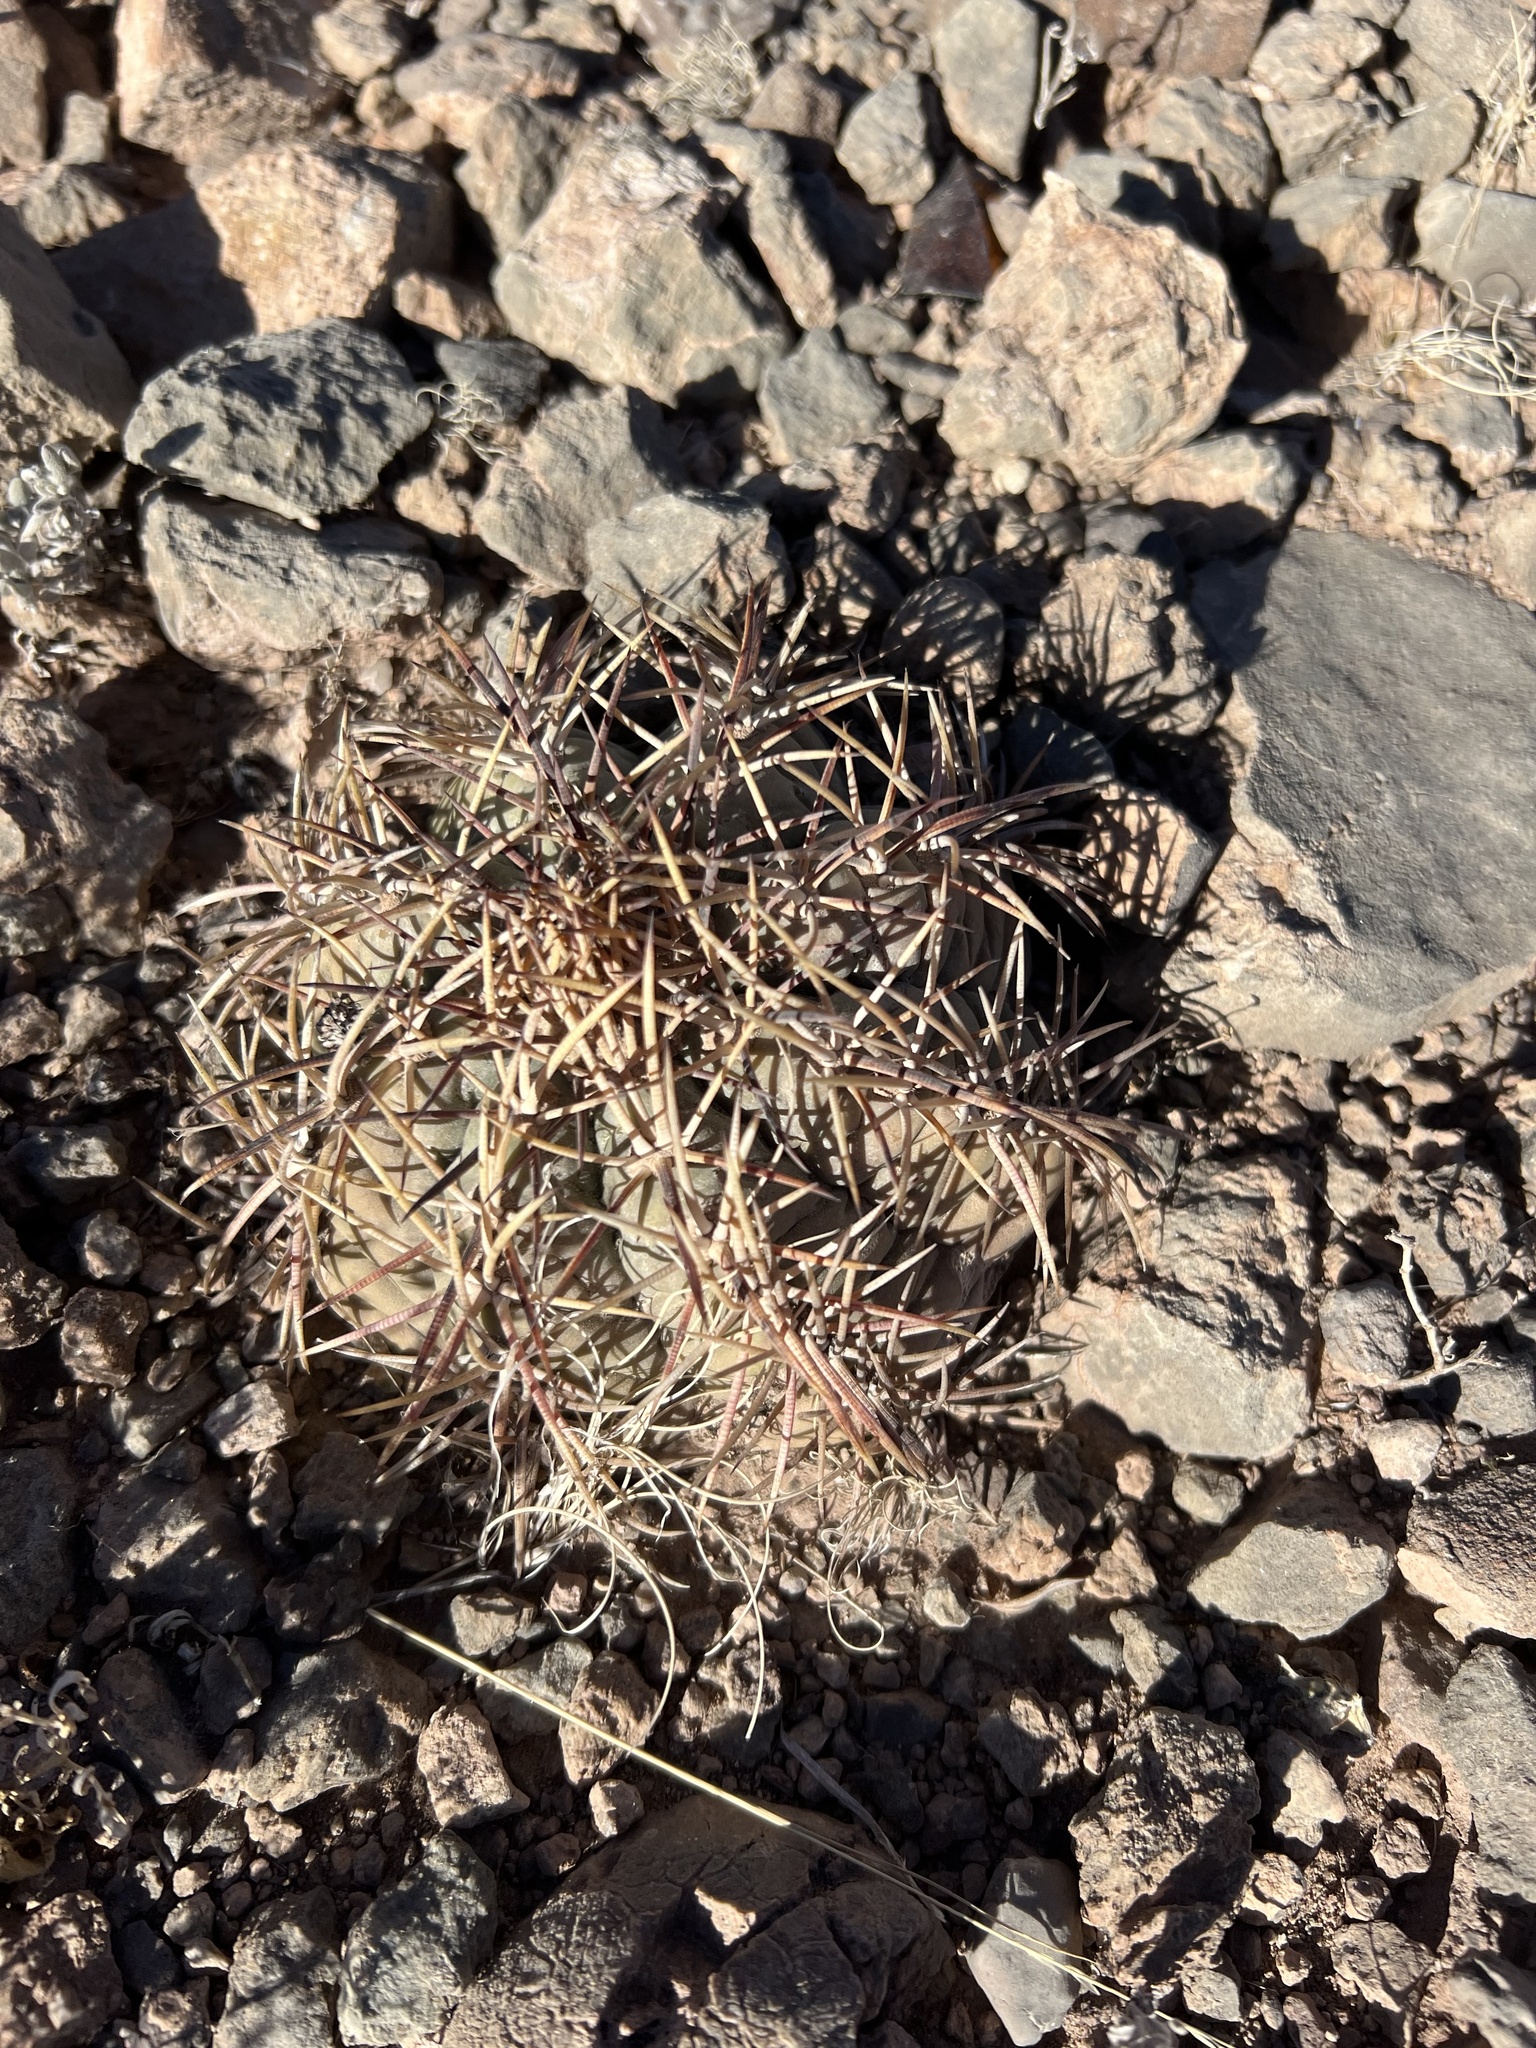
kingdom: Plantae
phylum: Tracheophyta
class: Magnoliopsida
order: Caryophyllales
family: Cactaceae
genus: Echinocactus
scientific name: Echinocactus horizonthalonius
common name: Devilshead
